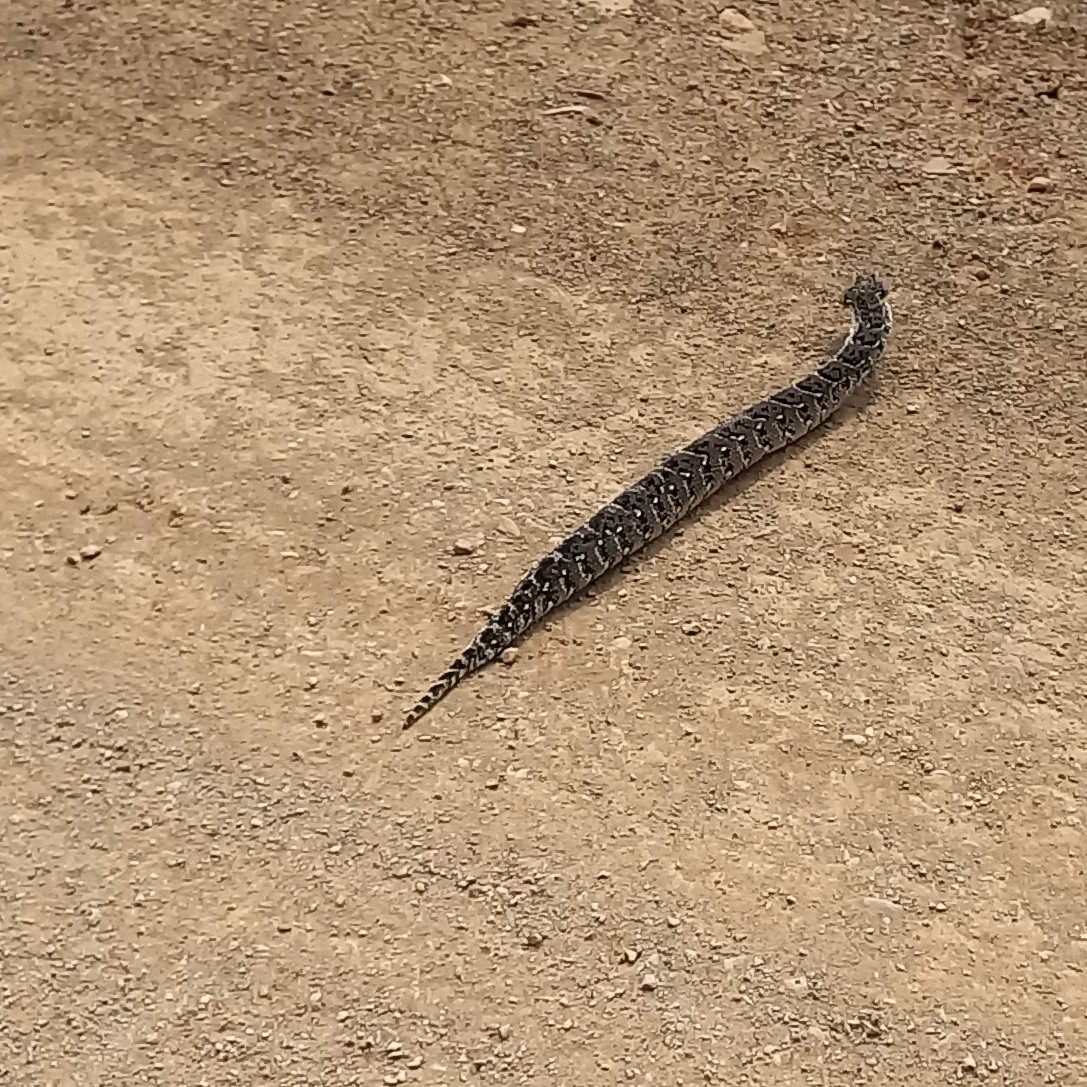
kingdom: Animalia
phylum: Chordata
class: Squamata
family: Viperidae
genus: Bitis
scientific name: Bitis arietans
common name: Puff adder
